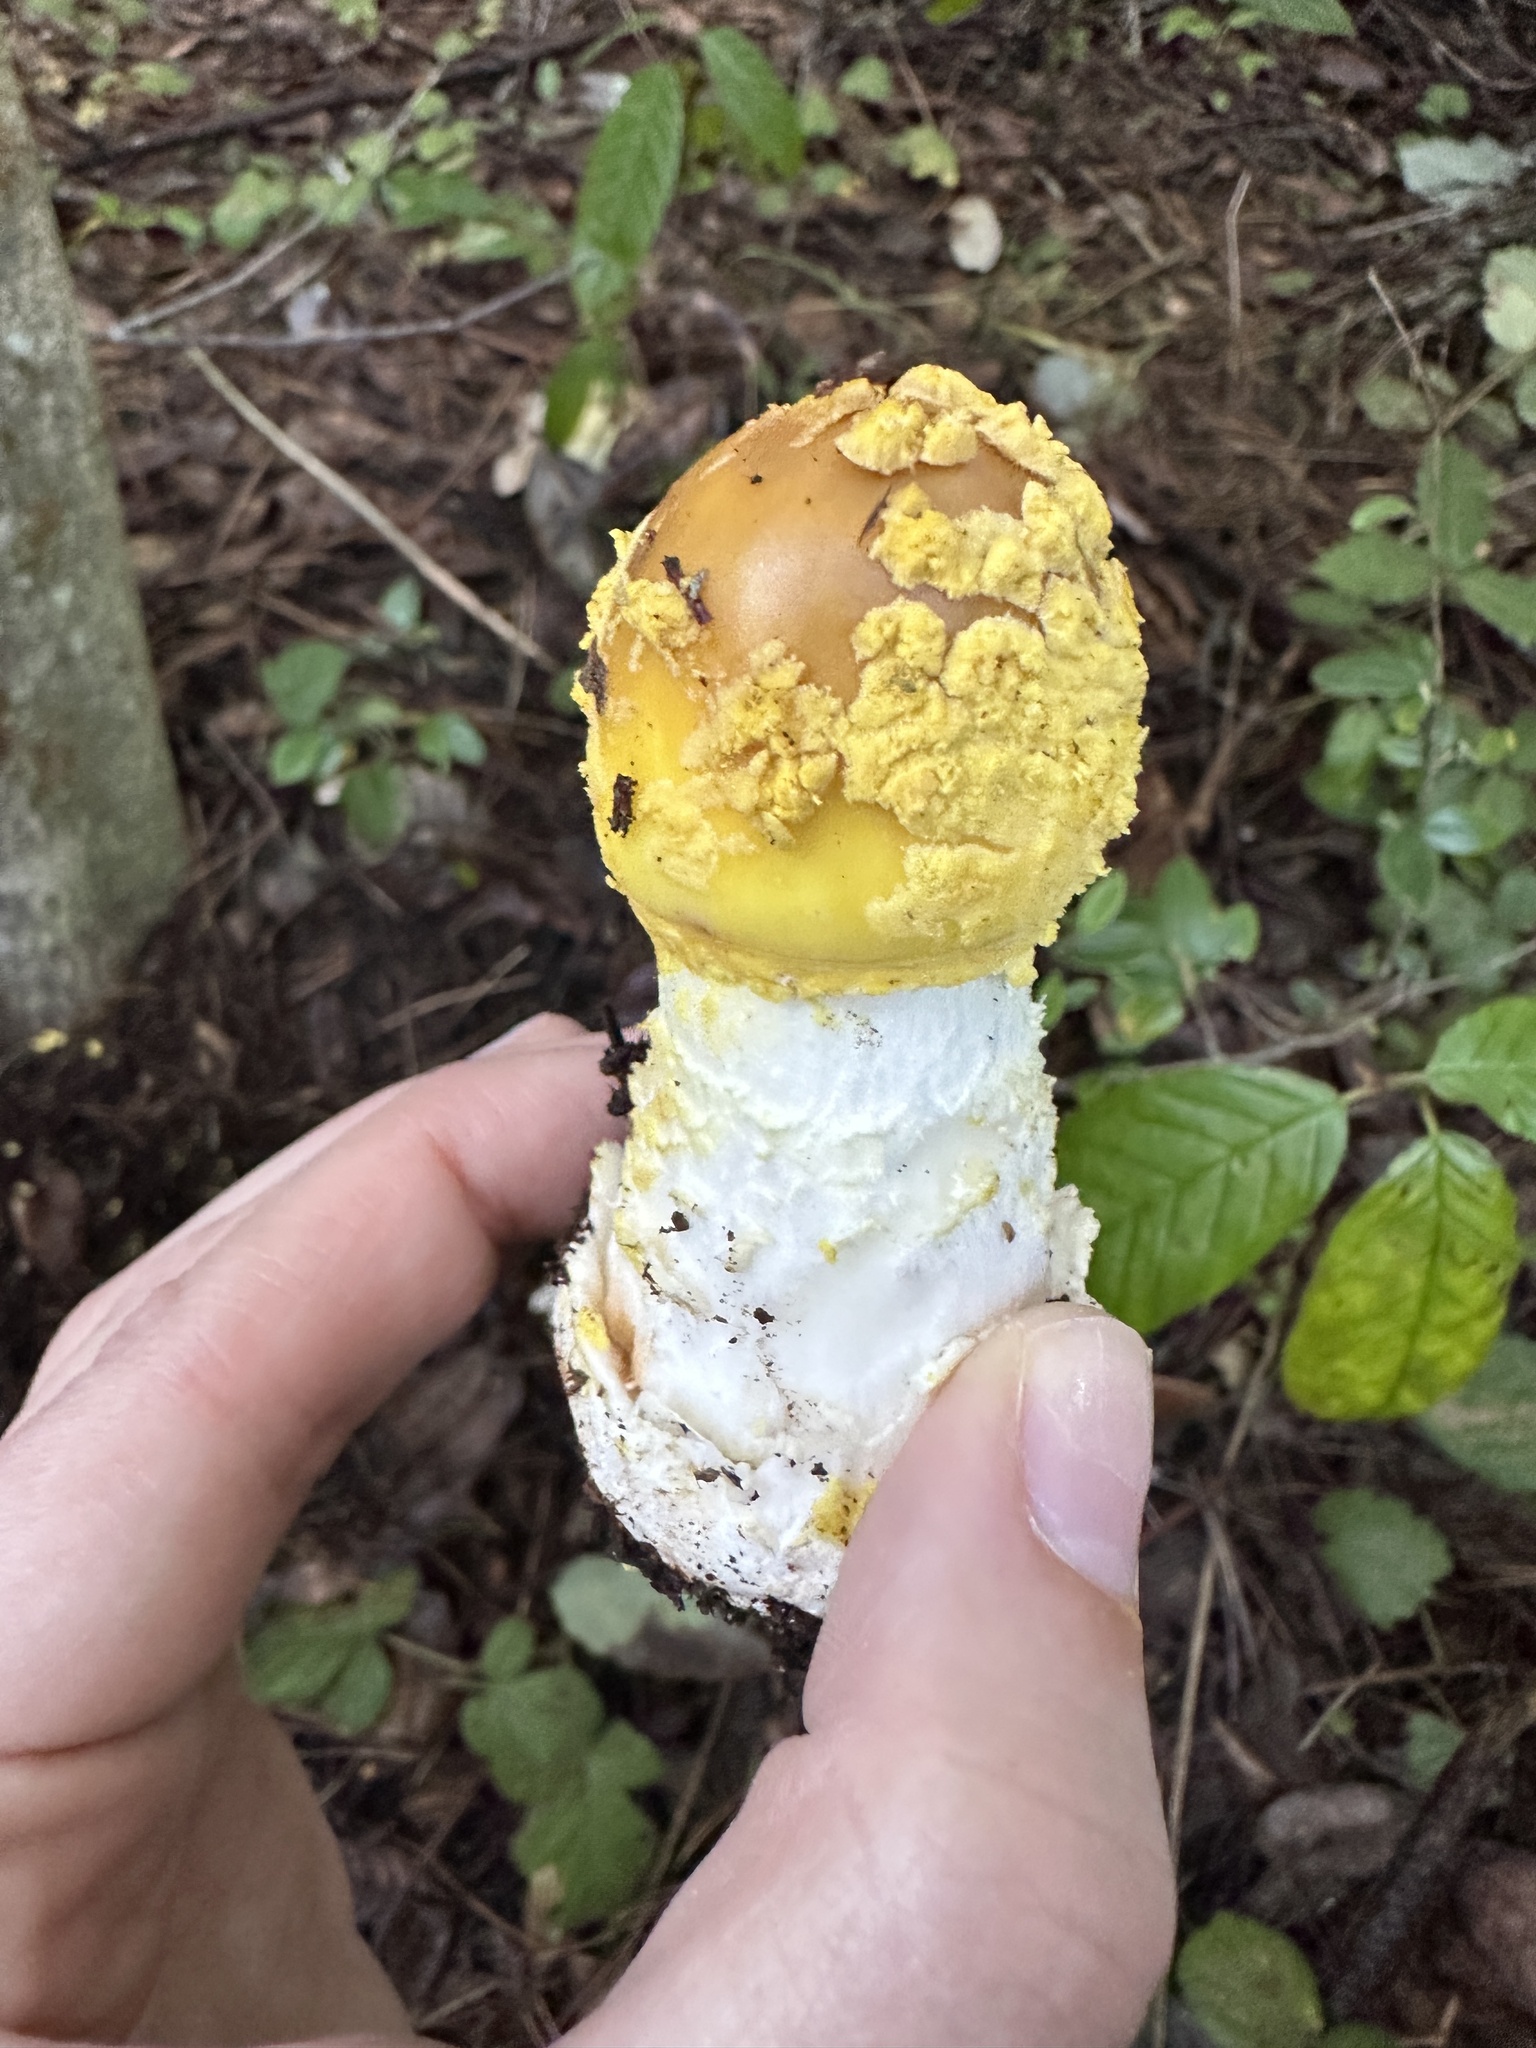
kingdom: Fungi
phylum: Basidiomycota
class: Agaricomycetes
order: Agaricales
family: Amanitaceae
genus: Amanita
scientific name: Amanita augusta
